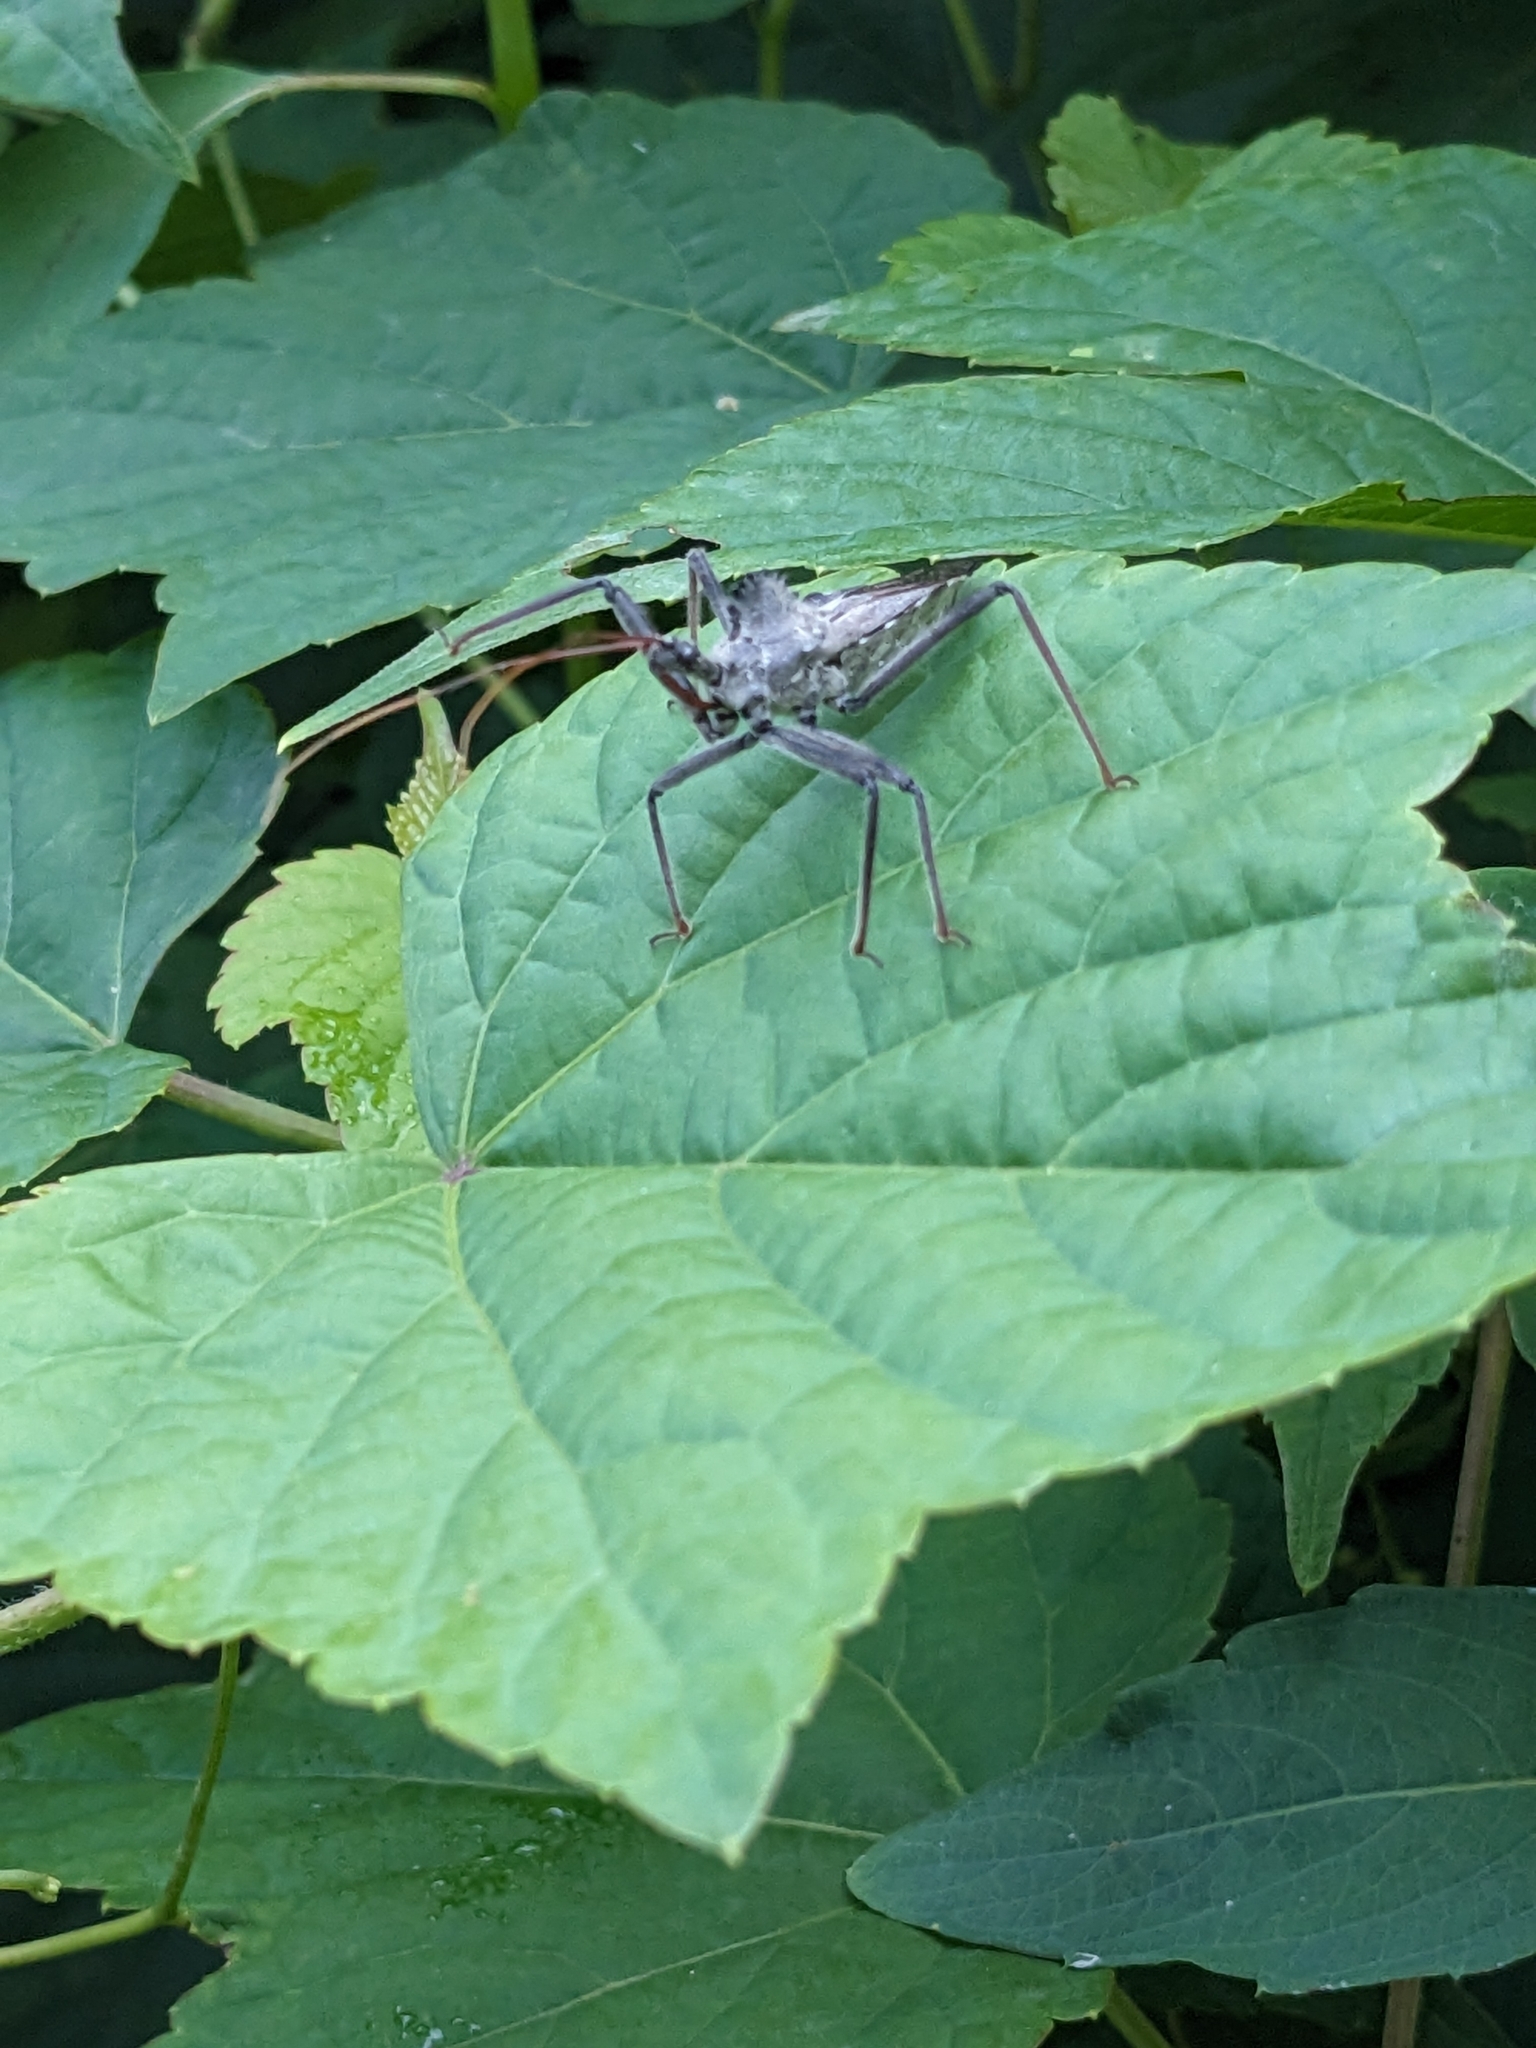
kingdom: Animalia
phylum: Arthropoda
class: Insecta
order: Hemiptera
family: Reduviidae
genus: Arilus
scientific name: Arilus cristatus
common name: North american wheel bug
